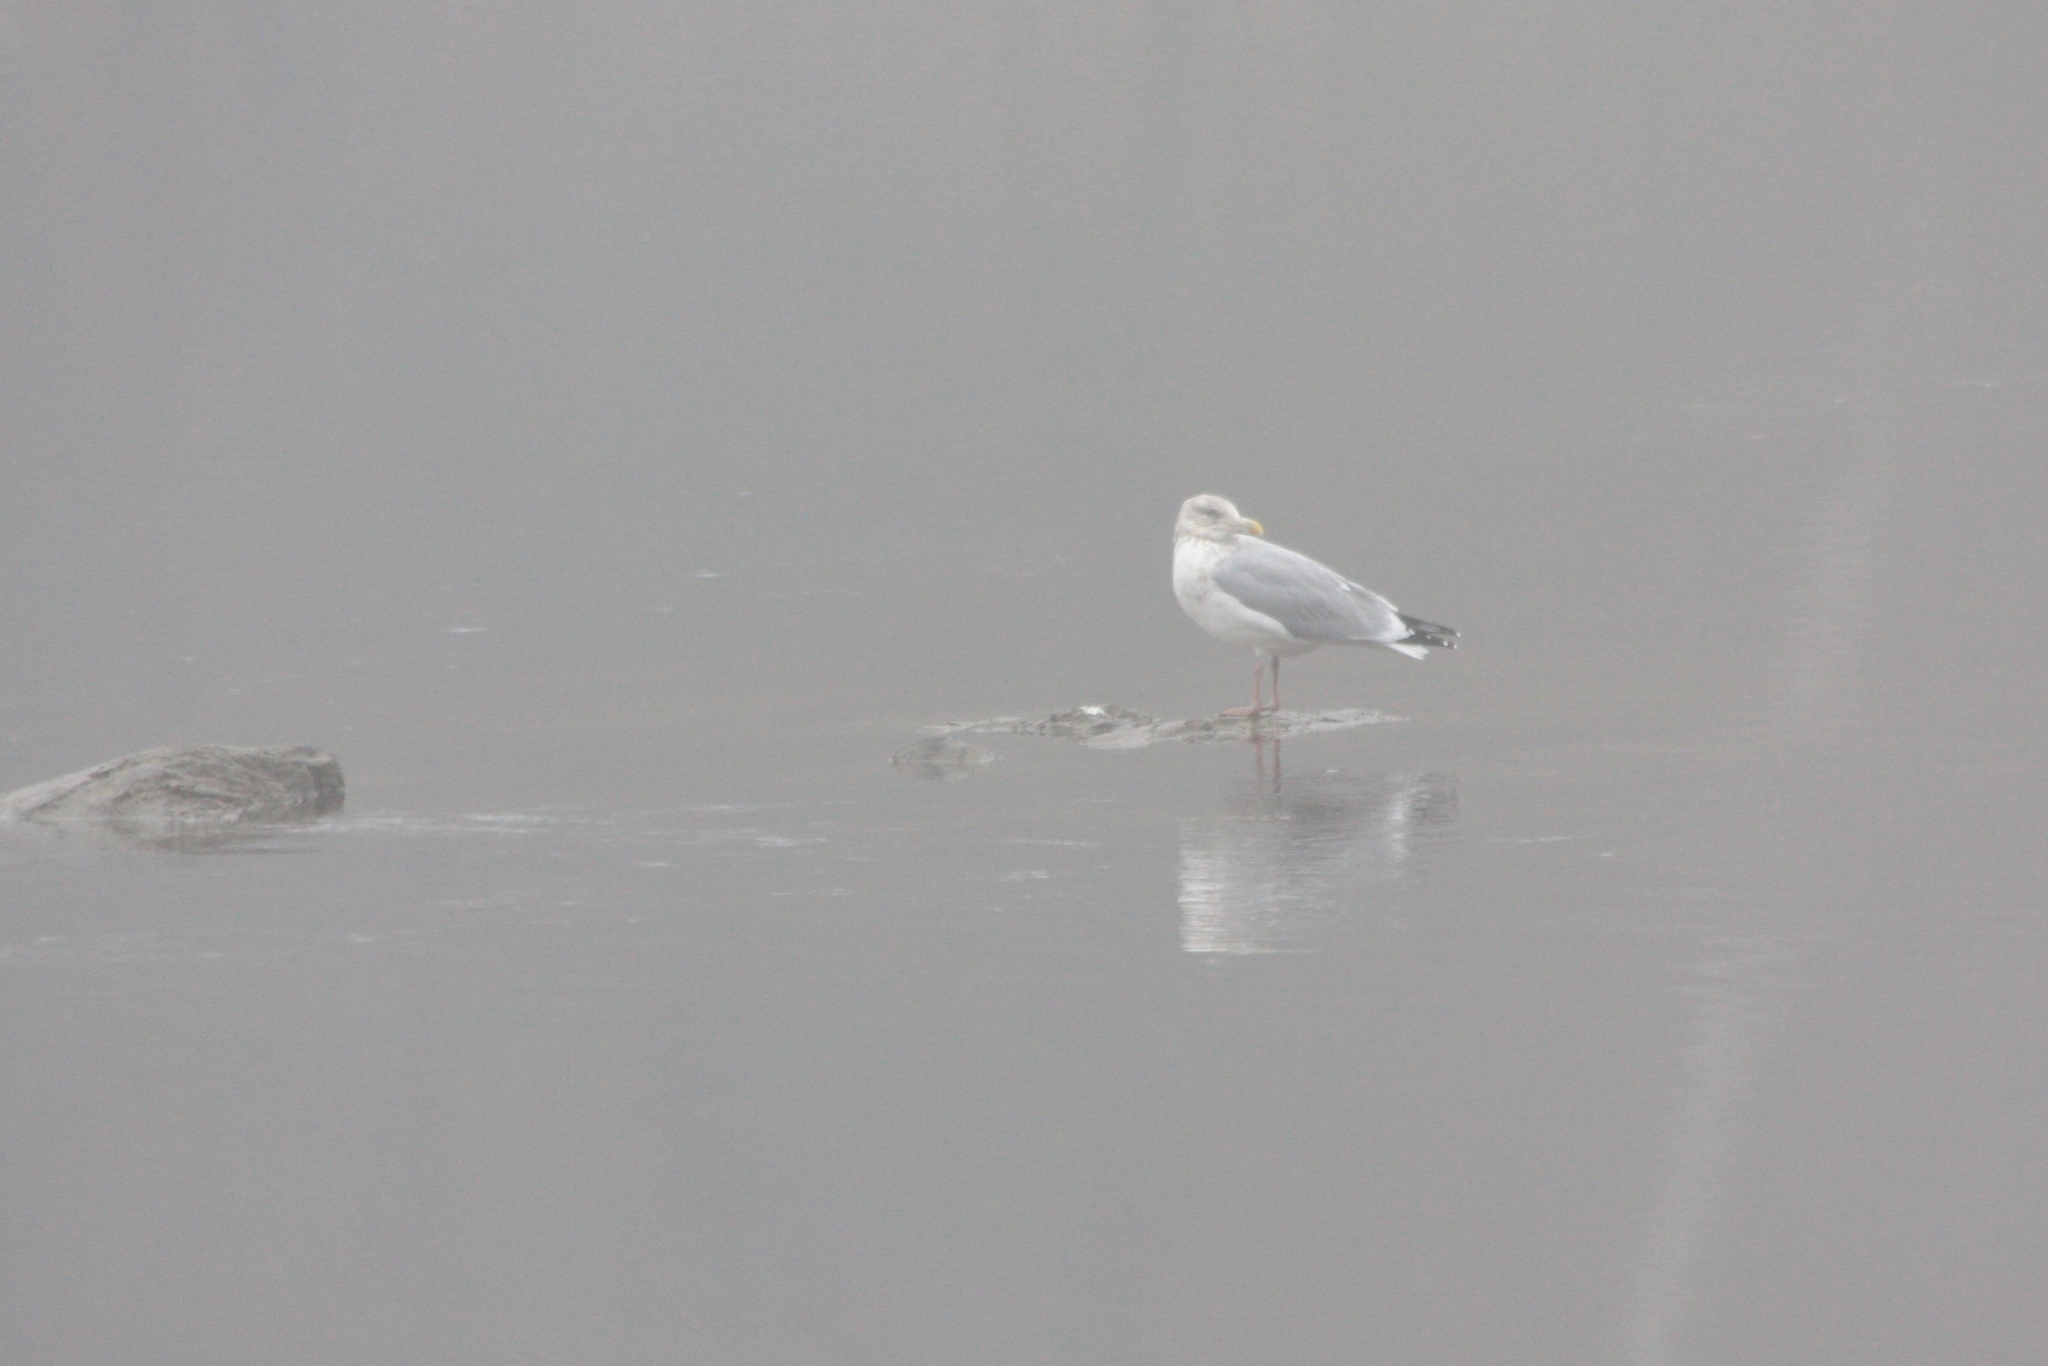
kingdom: Animalia
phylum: Chordata
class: Aves
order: Charadriiformes
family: Laridae
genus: Larus
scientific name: Larus argentatus
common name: Herring gull
